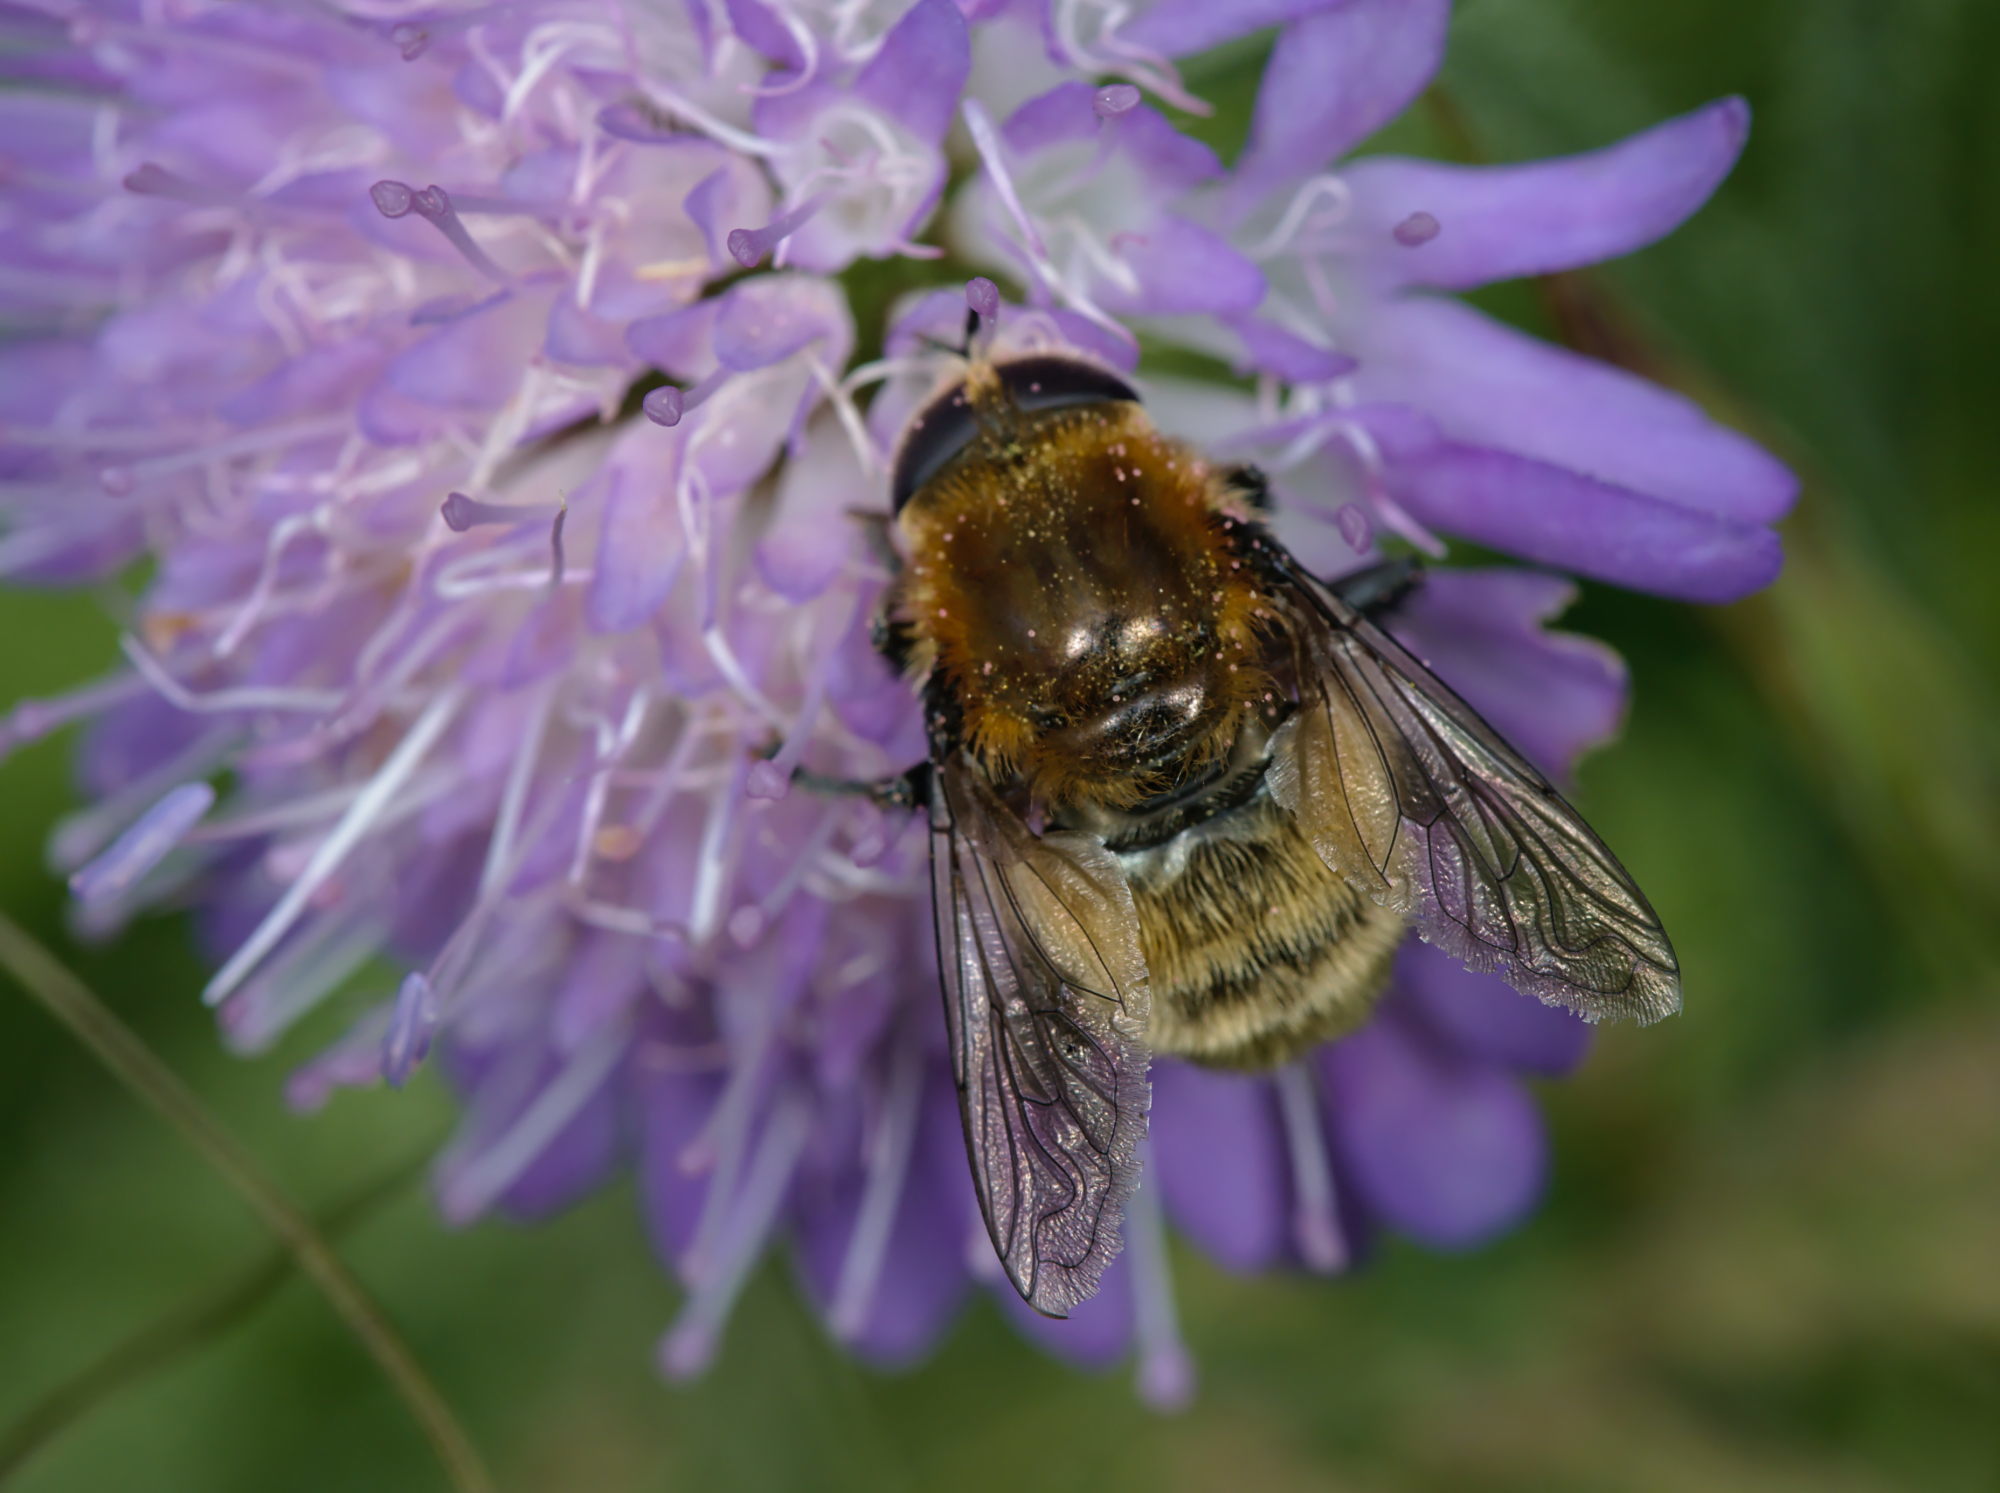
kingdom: Animalia
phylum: Arthropoda
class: Insecta
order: Diptera
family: Syrphidae
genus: Merodon
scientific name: Merodon equestris
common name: Greater bulb-fly
